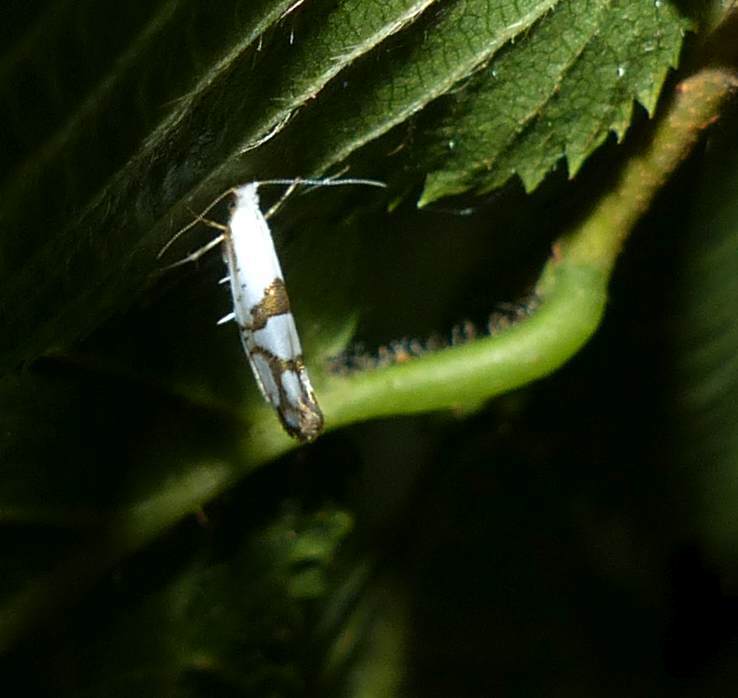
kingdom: Animalia
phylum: Arthropoda
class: Insecta
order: Lepidoptera
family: Argyresthiidae
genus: Argyresthia
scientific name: Argyresthia oreasella
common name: Cherry shoot borer moth
